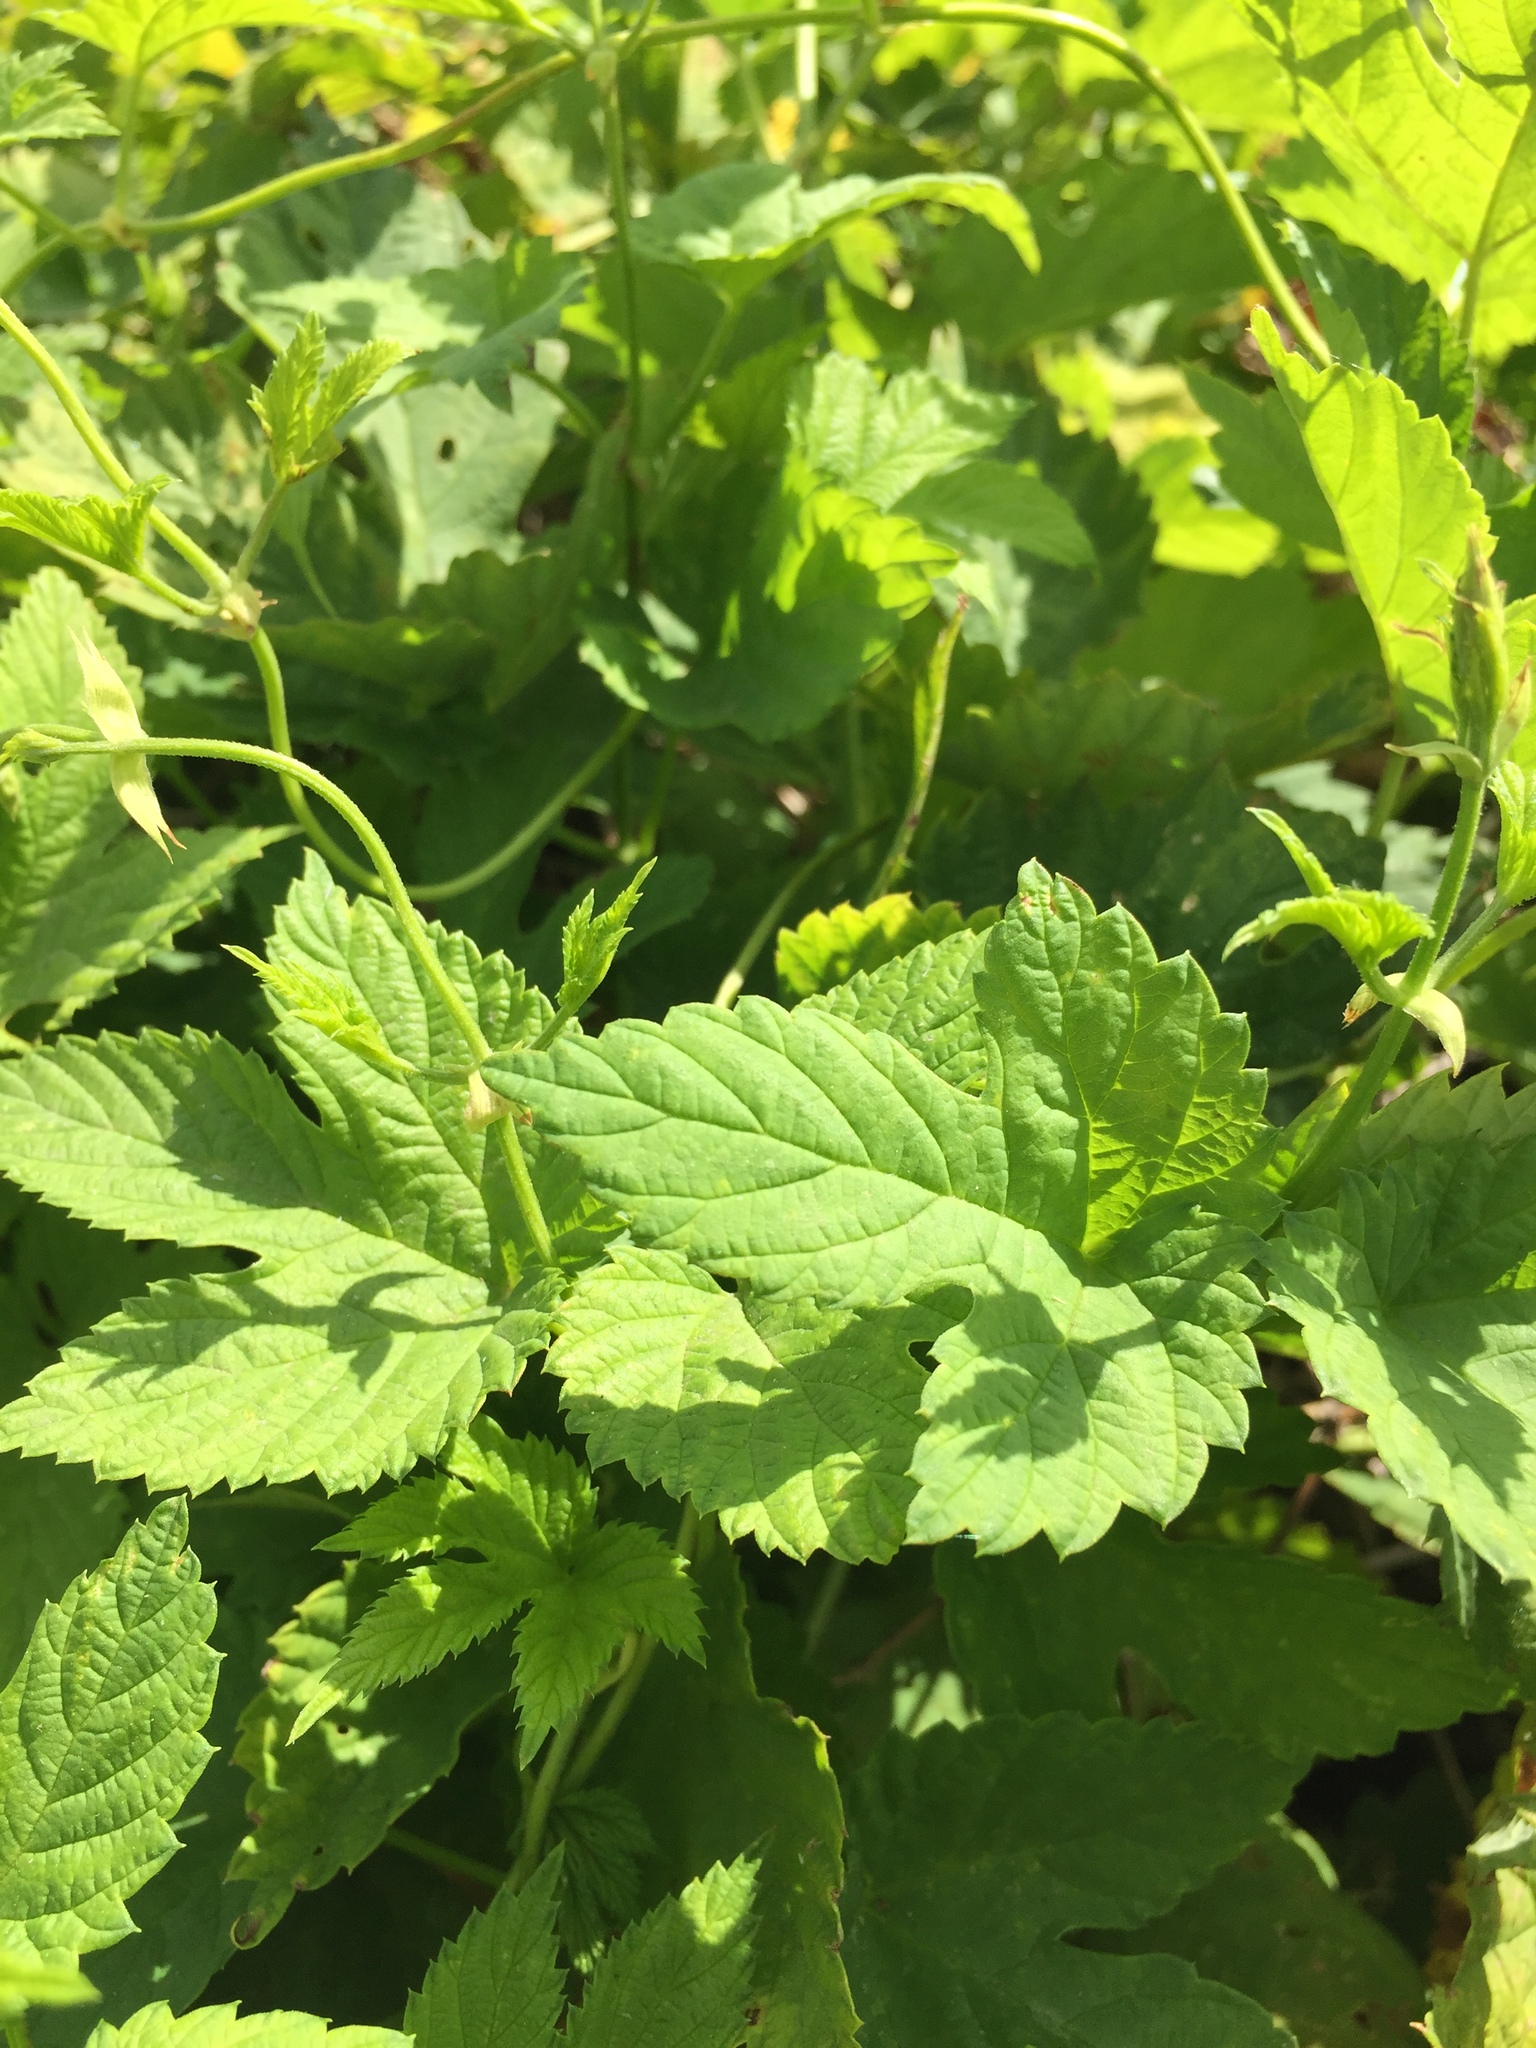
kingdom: Plantae
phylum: Tracheophyta
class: Magnoliopsida
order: Rosales
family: Cannabaceae
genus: Humulus
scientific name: Humulus lupulus
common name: Hop
